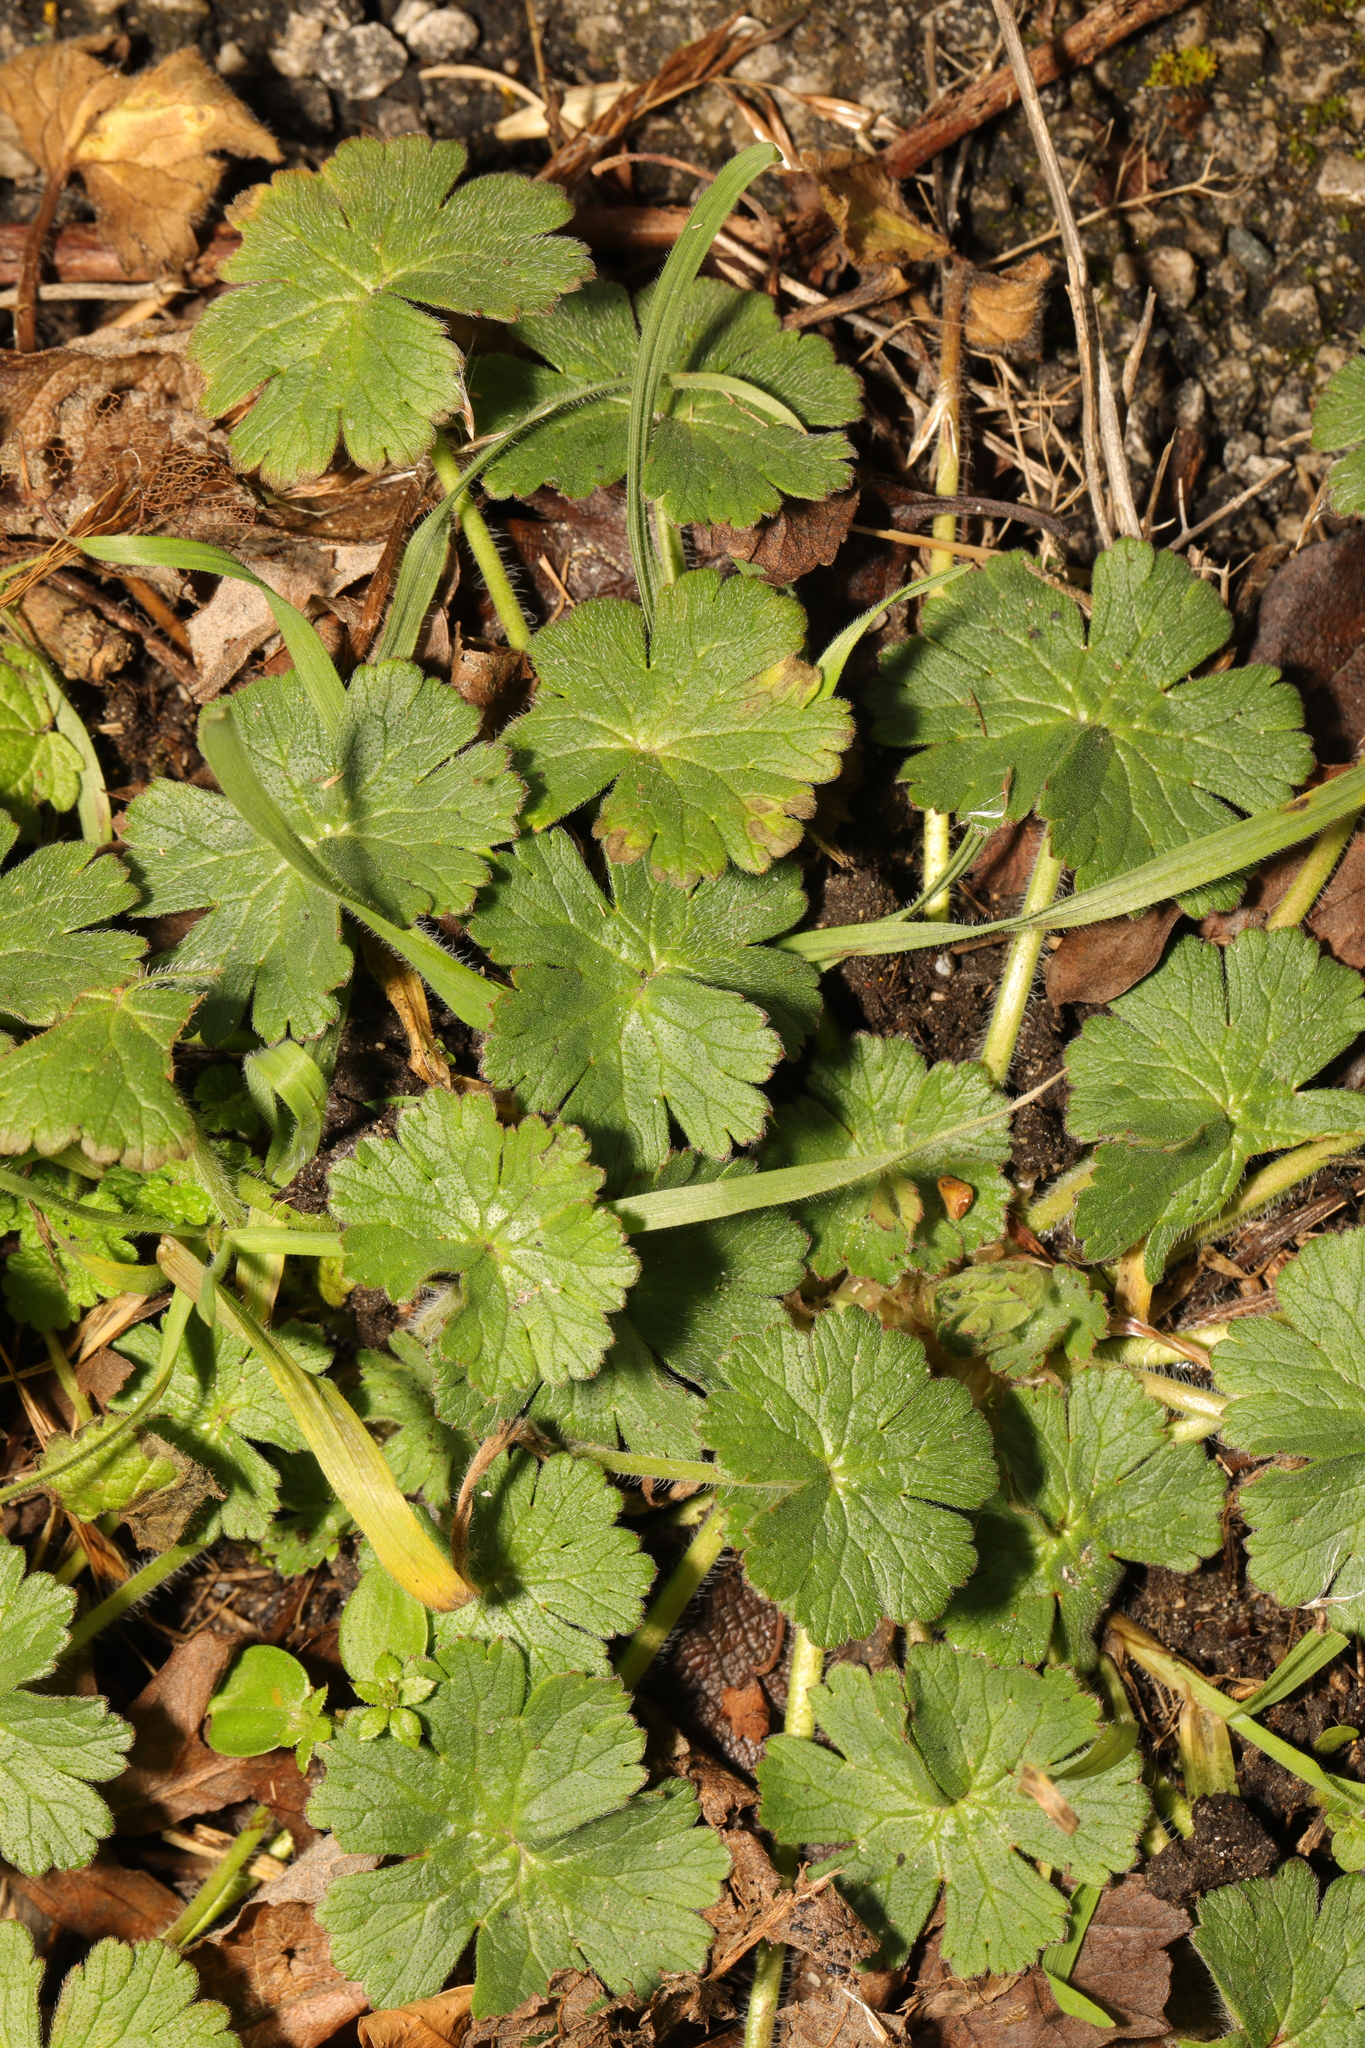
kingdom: Plantae
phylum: Tracheophyta
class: Magnoliopsida
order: Geraniales
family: Geraniaceae
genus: Geranium
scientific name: Geranium molle
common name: Dove's-foot crane's-bill
